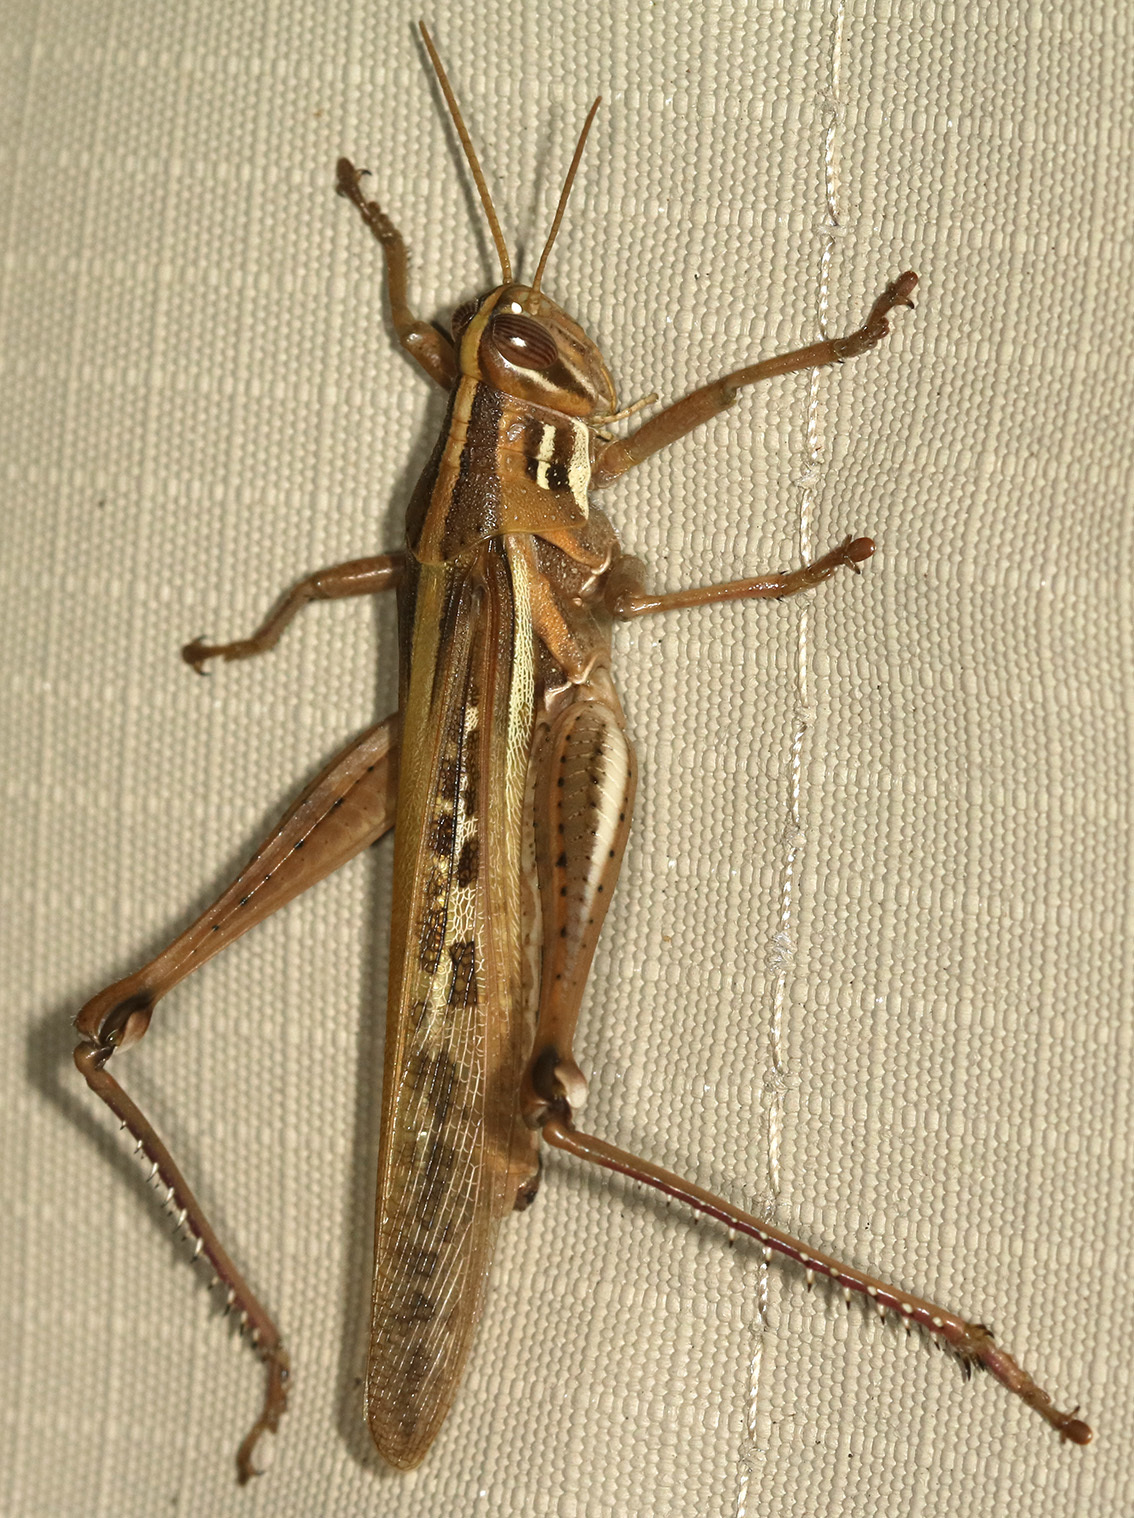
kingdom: Animalia
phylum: Arthropoda
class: Insecta
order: Orthoptera
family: Acrididae
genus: Schistocerca
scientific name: Schistocerca cancellata
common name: South american locust
